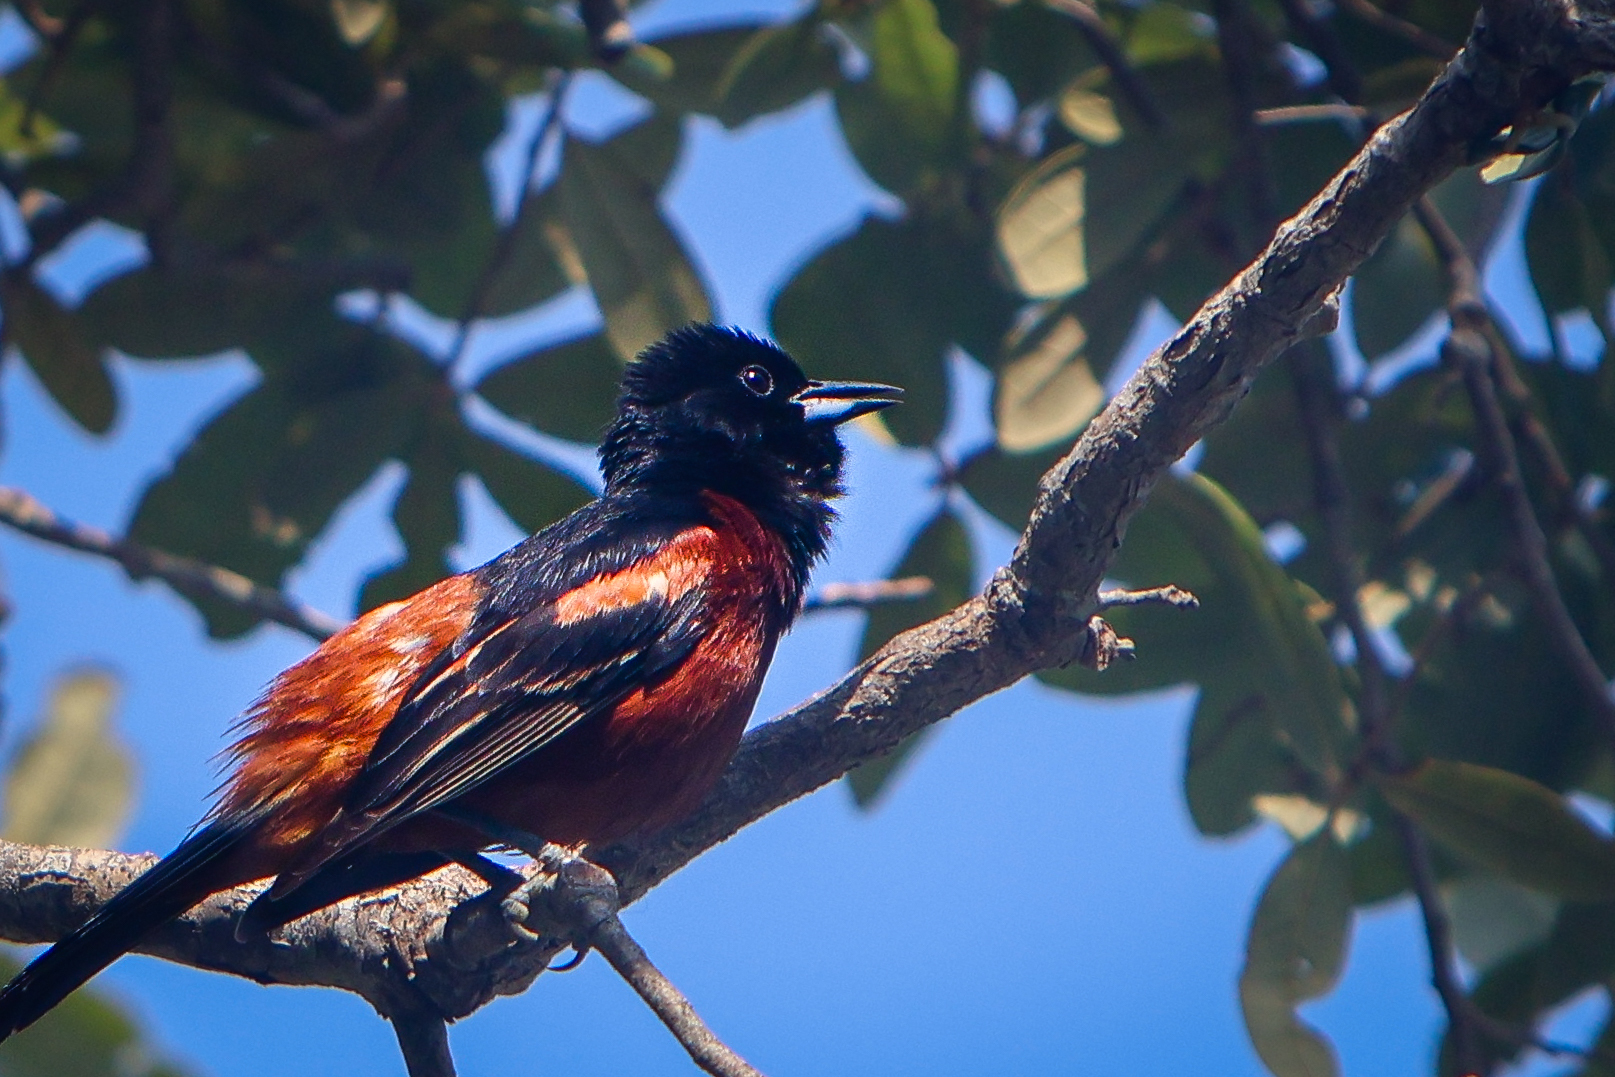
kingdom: Animalia
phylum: Chordata
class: Aves
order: Passeriformes
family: Icteridae
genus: Icterus
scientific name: Icterus spurius
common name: Orchard oriole
